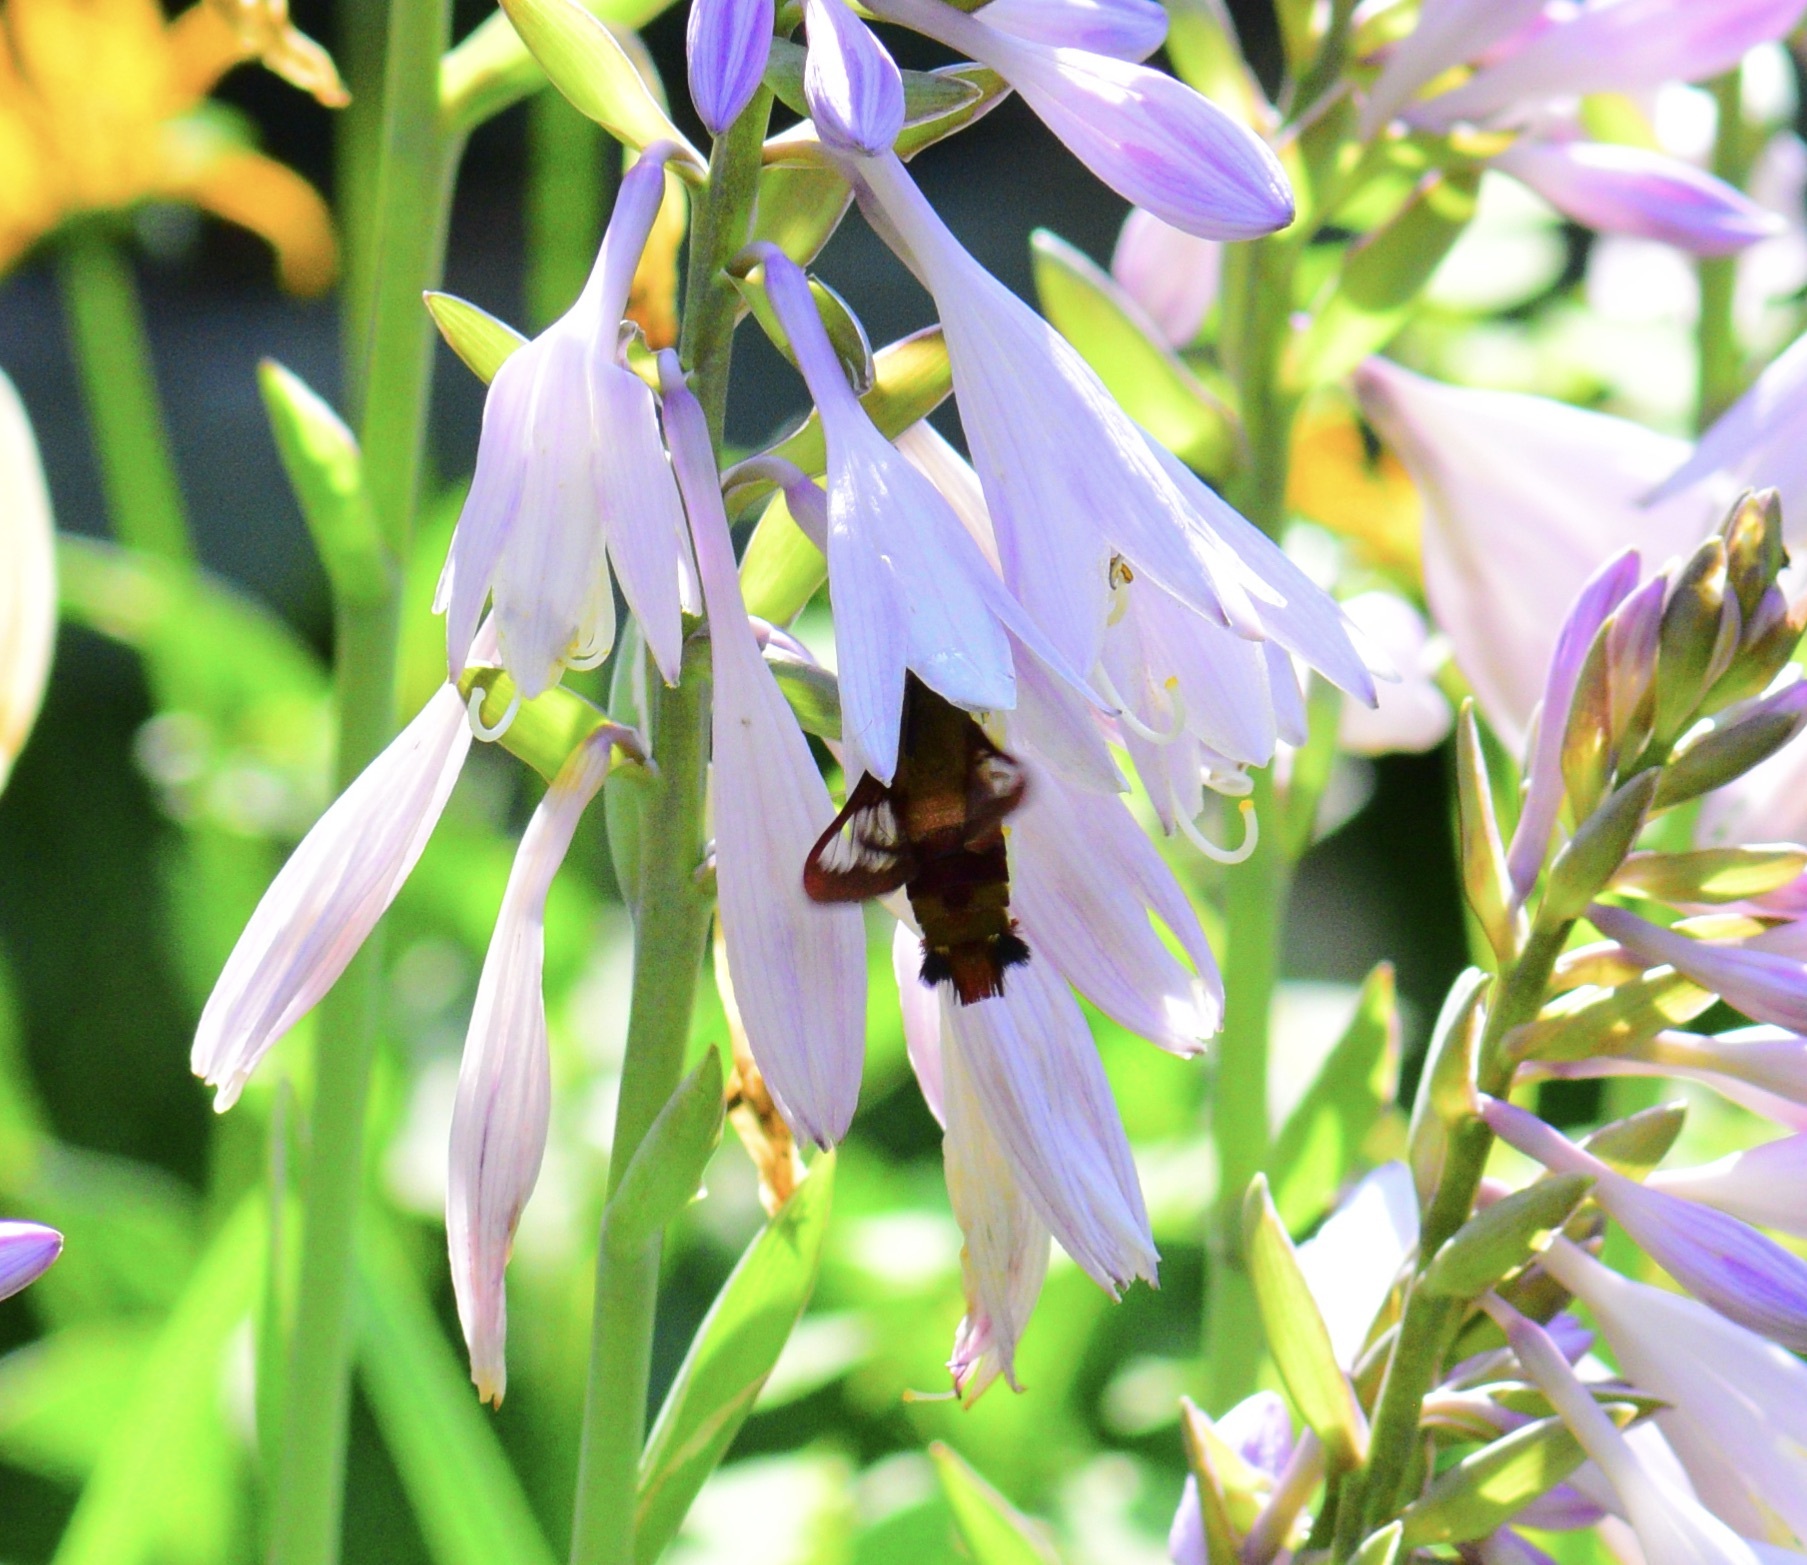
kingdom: Animalia
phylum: Arthropoda
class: Insecta
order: Lepidoptera
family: Sphingidae
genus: Hemaris
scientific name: Hemaris thysbe
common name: Common clear-wing
